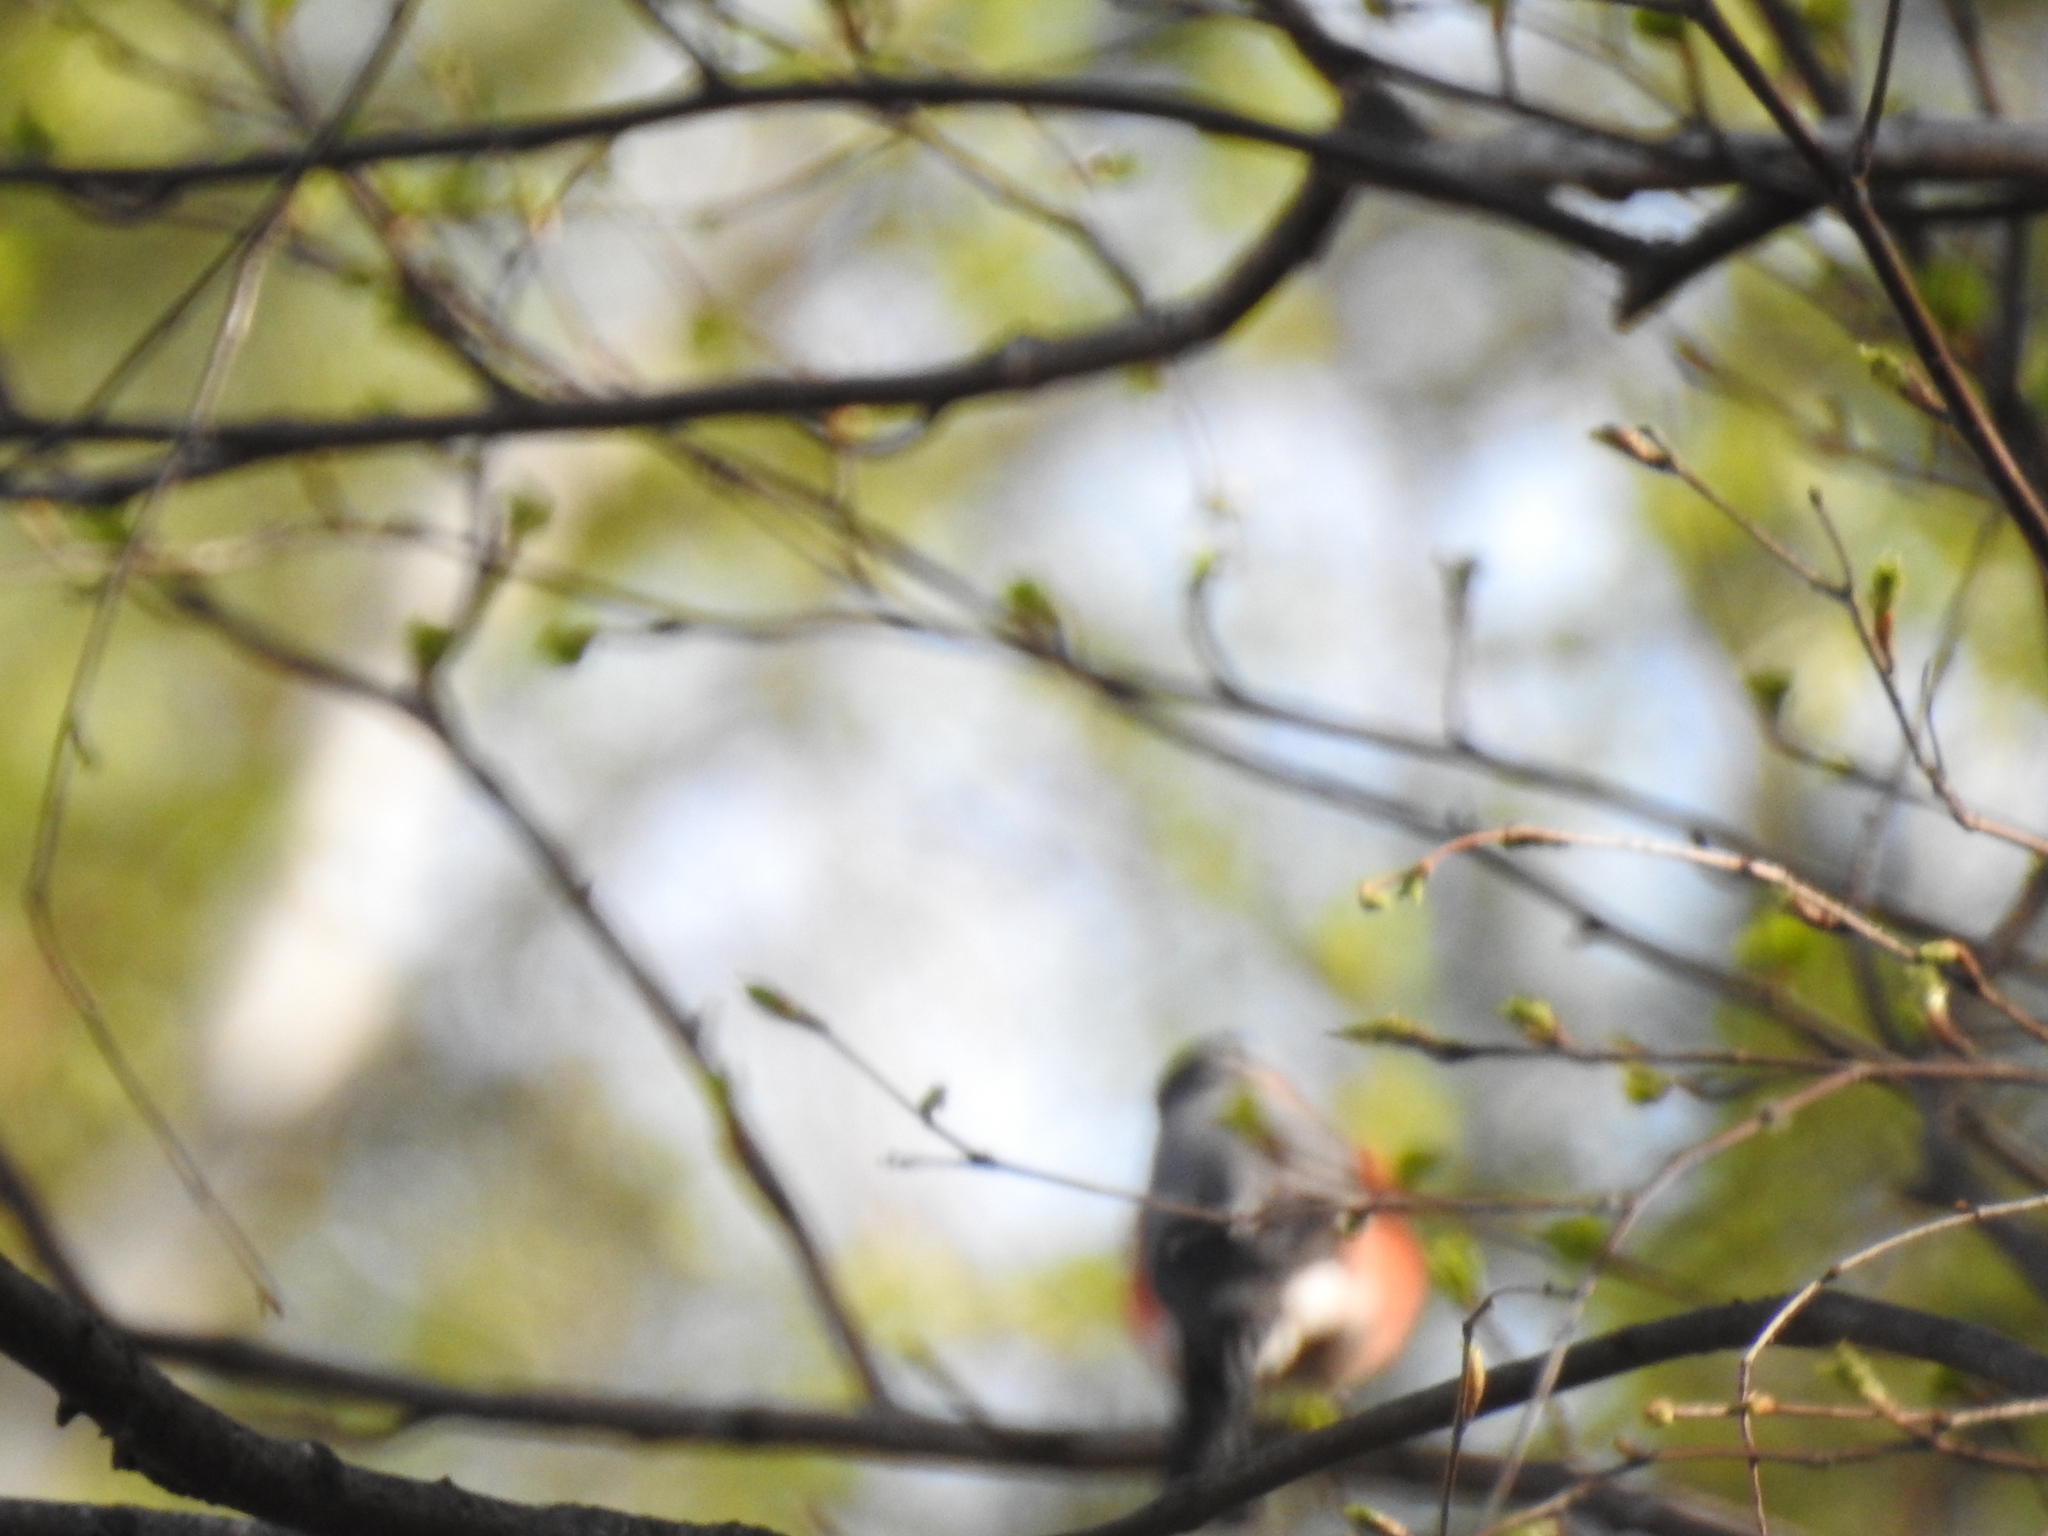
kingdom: Animalia
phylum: Chordata
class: Aves
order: Passeriformes
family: Fringillidae
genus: Pyrrhula
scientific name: Pyrrhula pyrrhula
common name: Eurasian bullfinch
